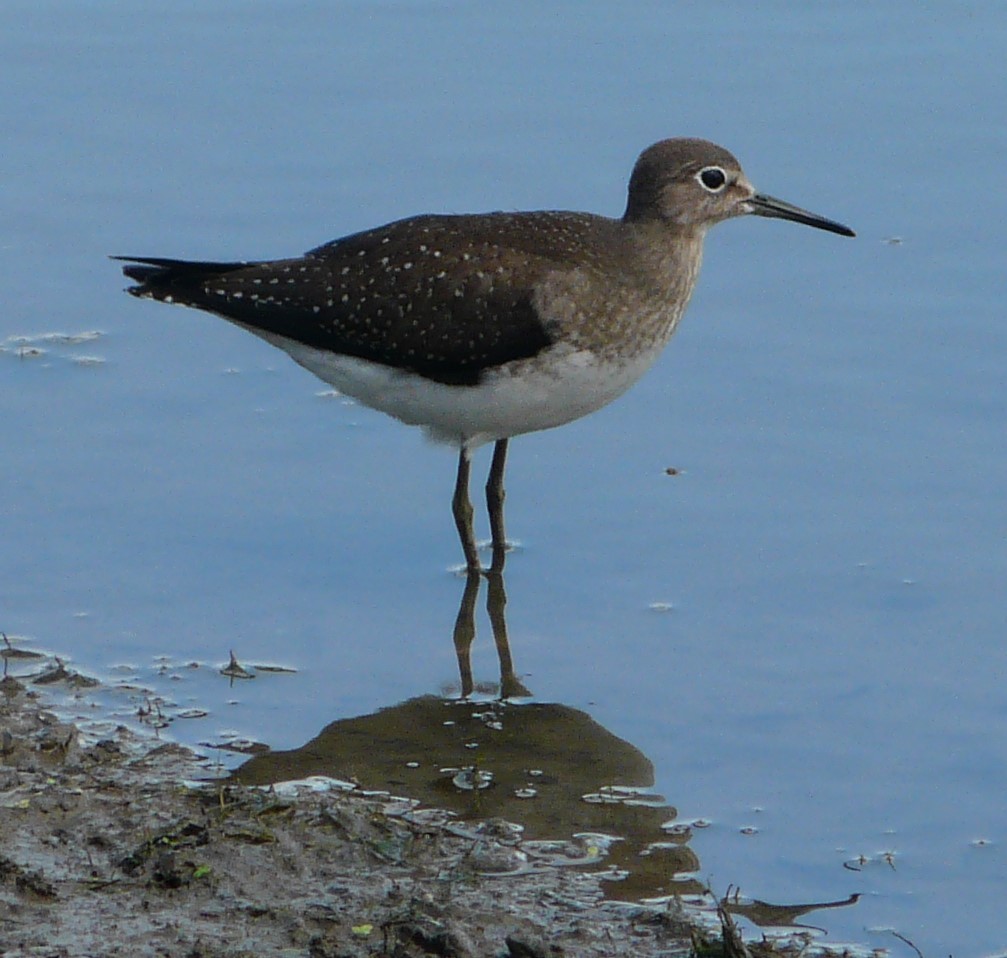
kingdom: Animalia
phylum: Chordata
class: Aves
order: Charadriiformes
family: Scolopacidae
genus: Tringa
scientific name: Tringa solitaria
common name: Solitary sandpiper
